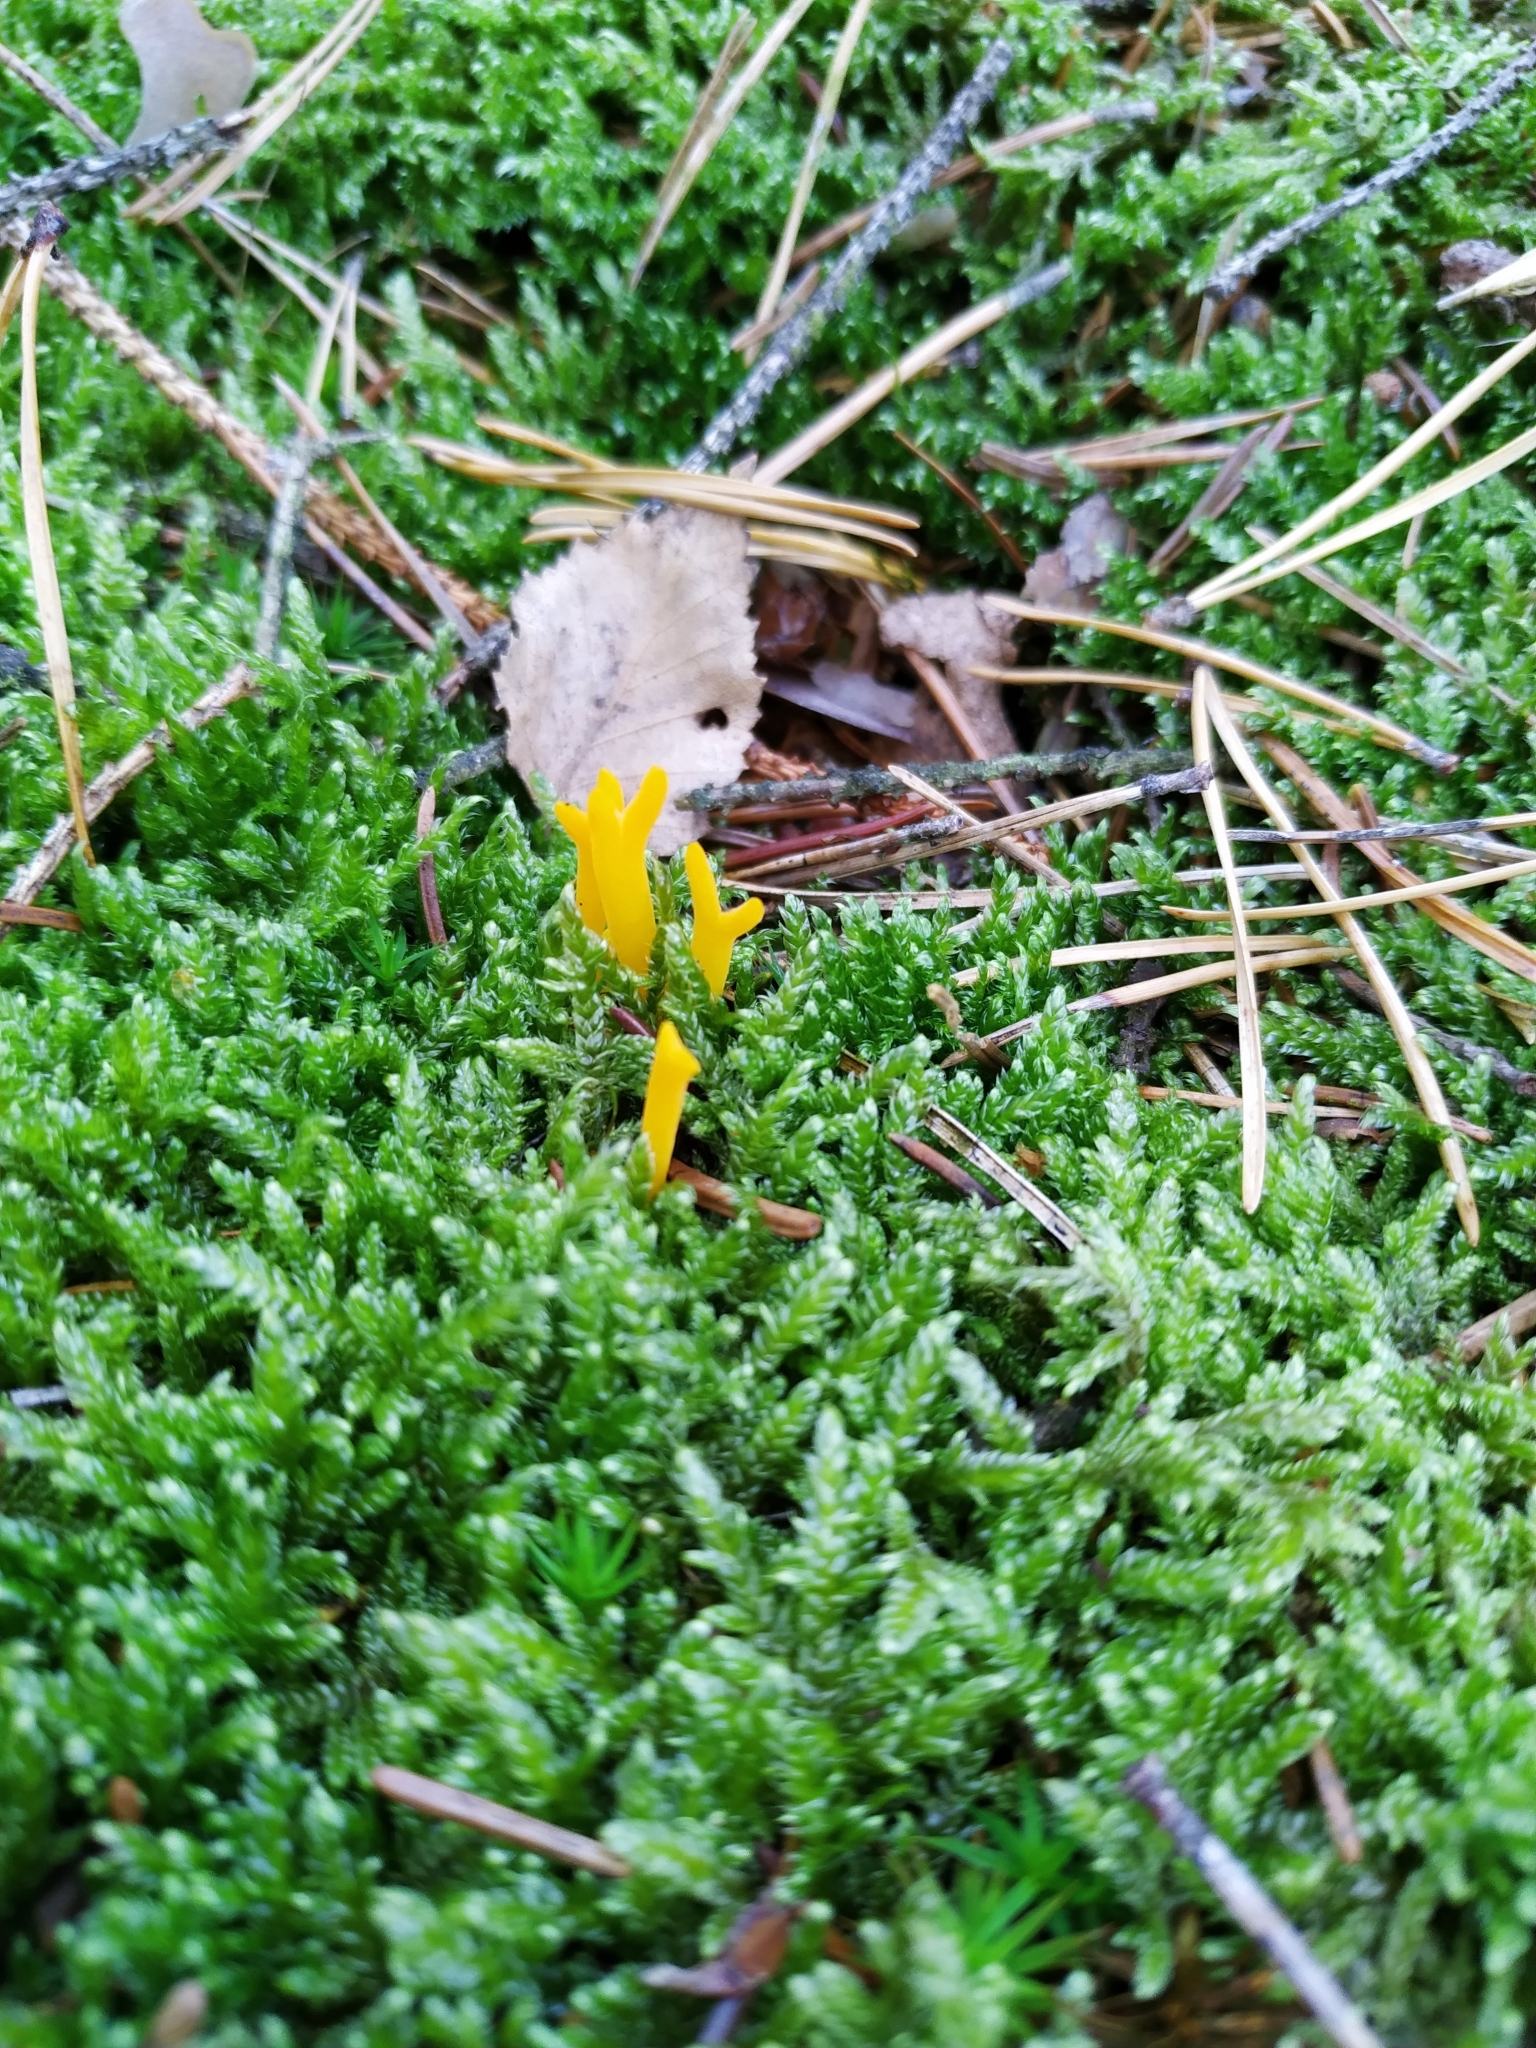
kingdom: Fungi
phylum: Basidiomycota
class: Dacrymycetes
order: Dacrymycetales
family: Dacrymycetaceae
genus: Calocera
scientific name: Calocera viscosa
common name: Yellow stagshorn
